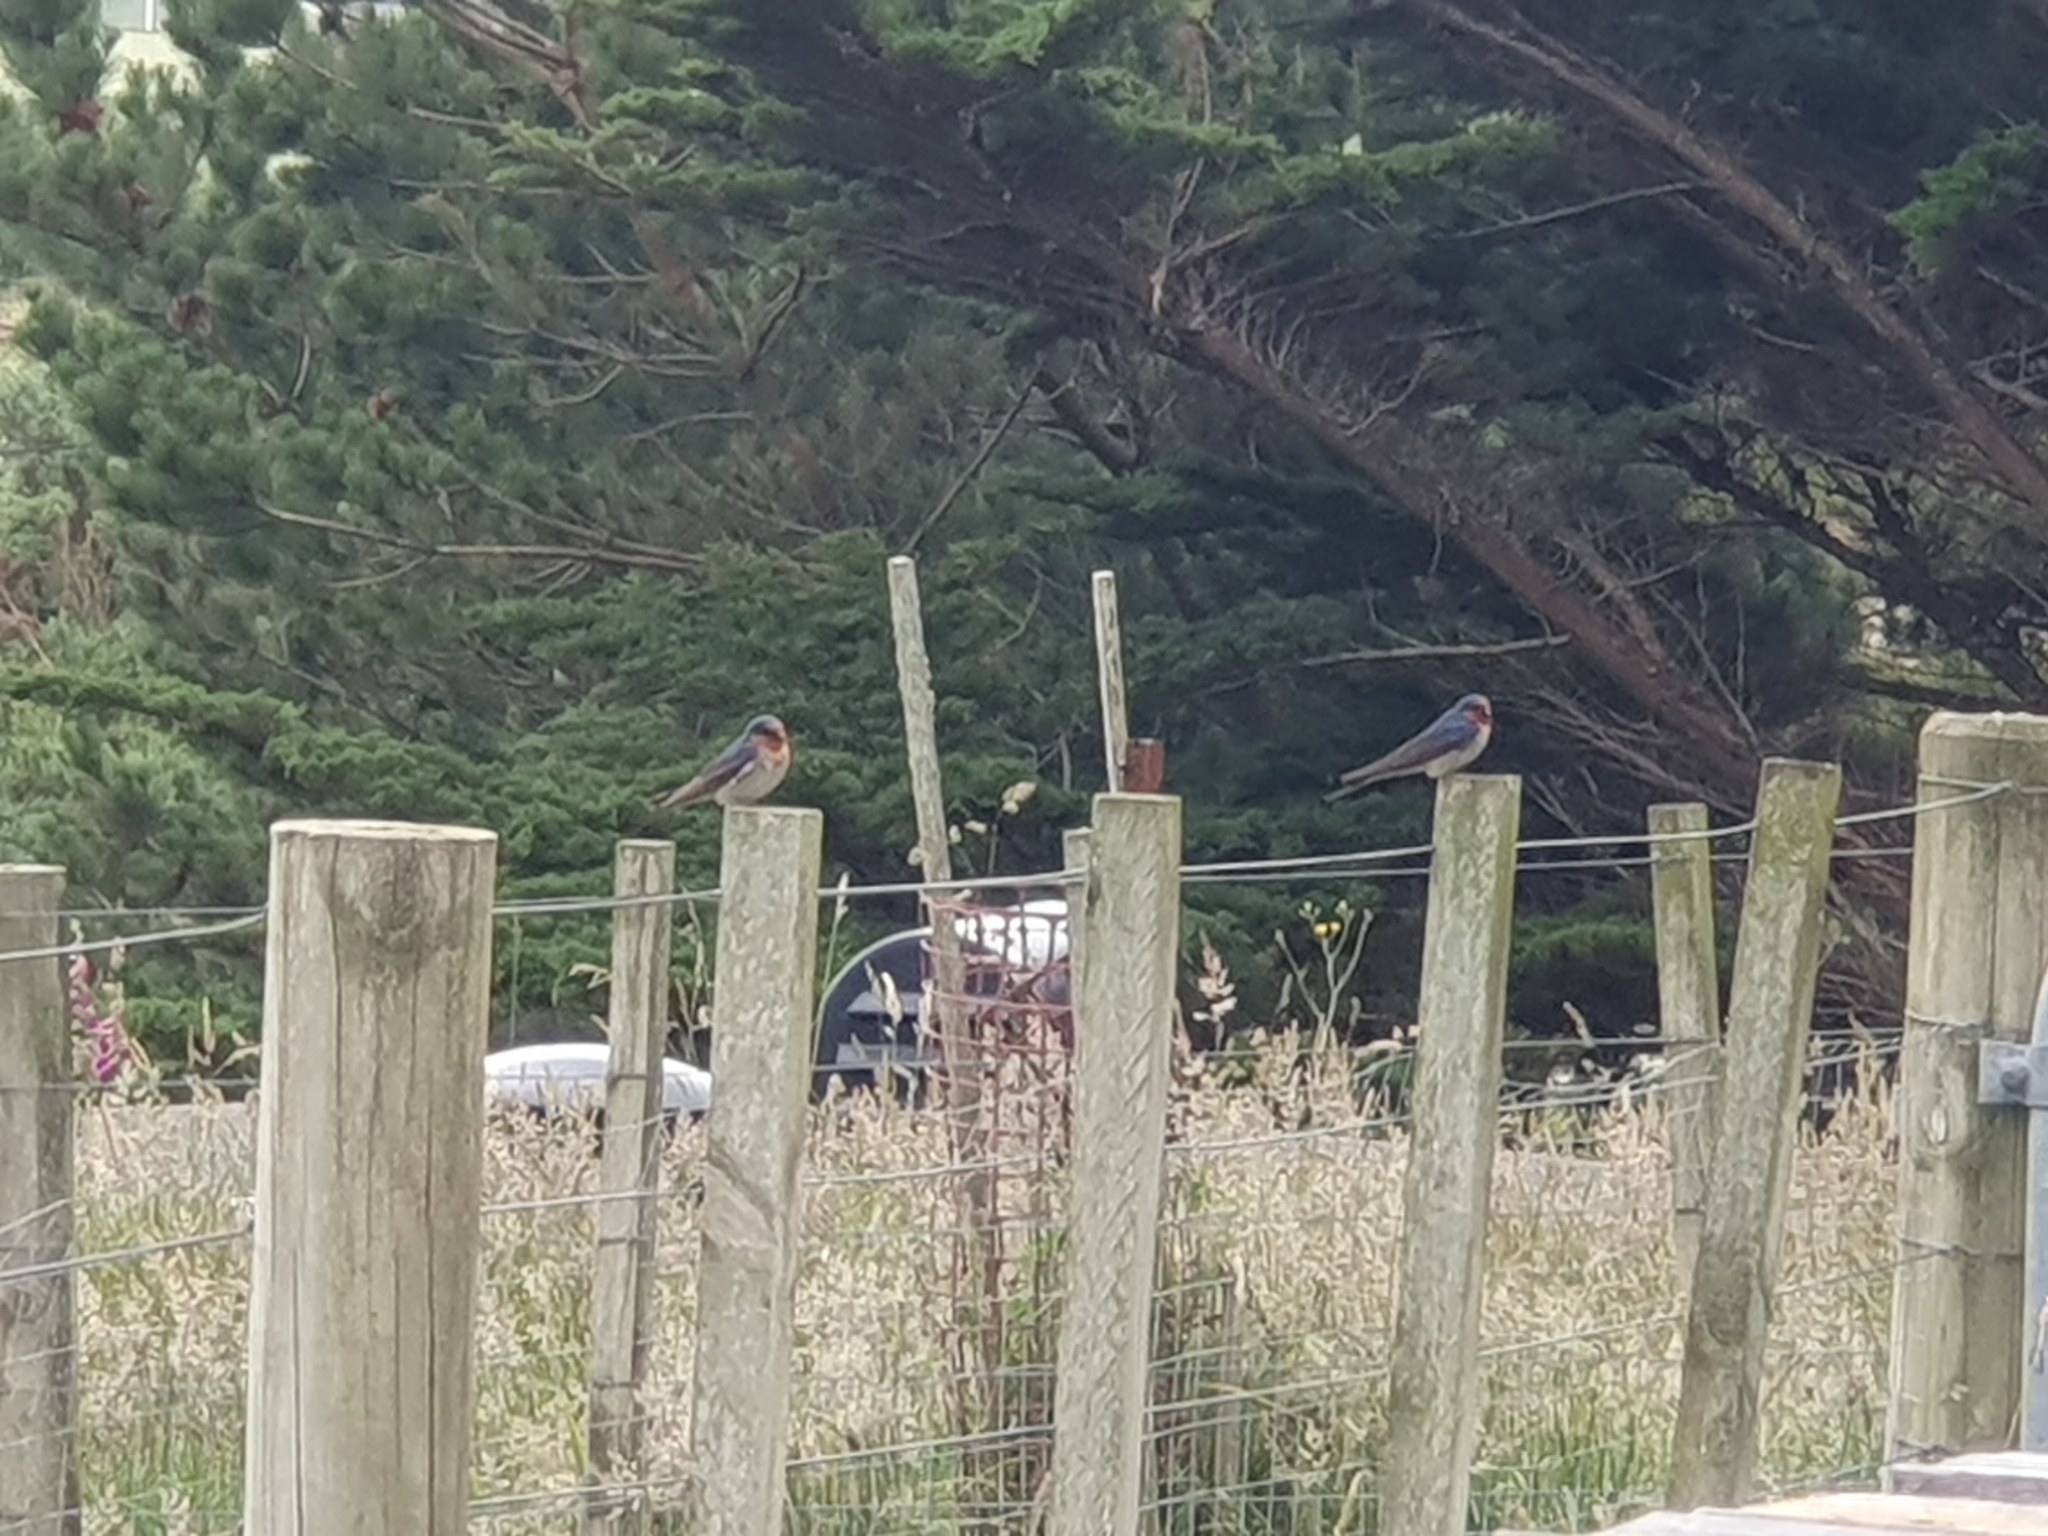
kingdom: Animalia
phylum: Chordata
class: Aves
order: Passeriformes
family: Hirundinidae
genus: Hirundo
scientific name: Hirundo neoxena
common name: Welcome swallow
